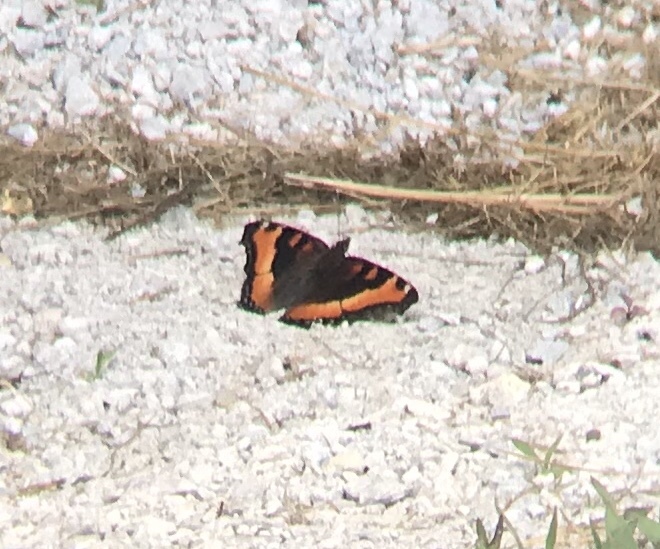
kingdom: Animalia
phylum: Arthropoda
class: Insecta
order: Lepidoptera
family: Nymphalidae
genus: Aglais
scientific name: Aglais milberti
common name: Milbert's tortoiseshell
